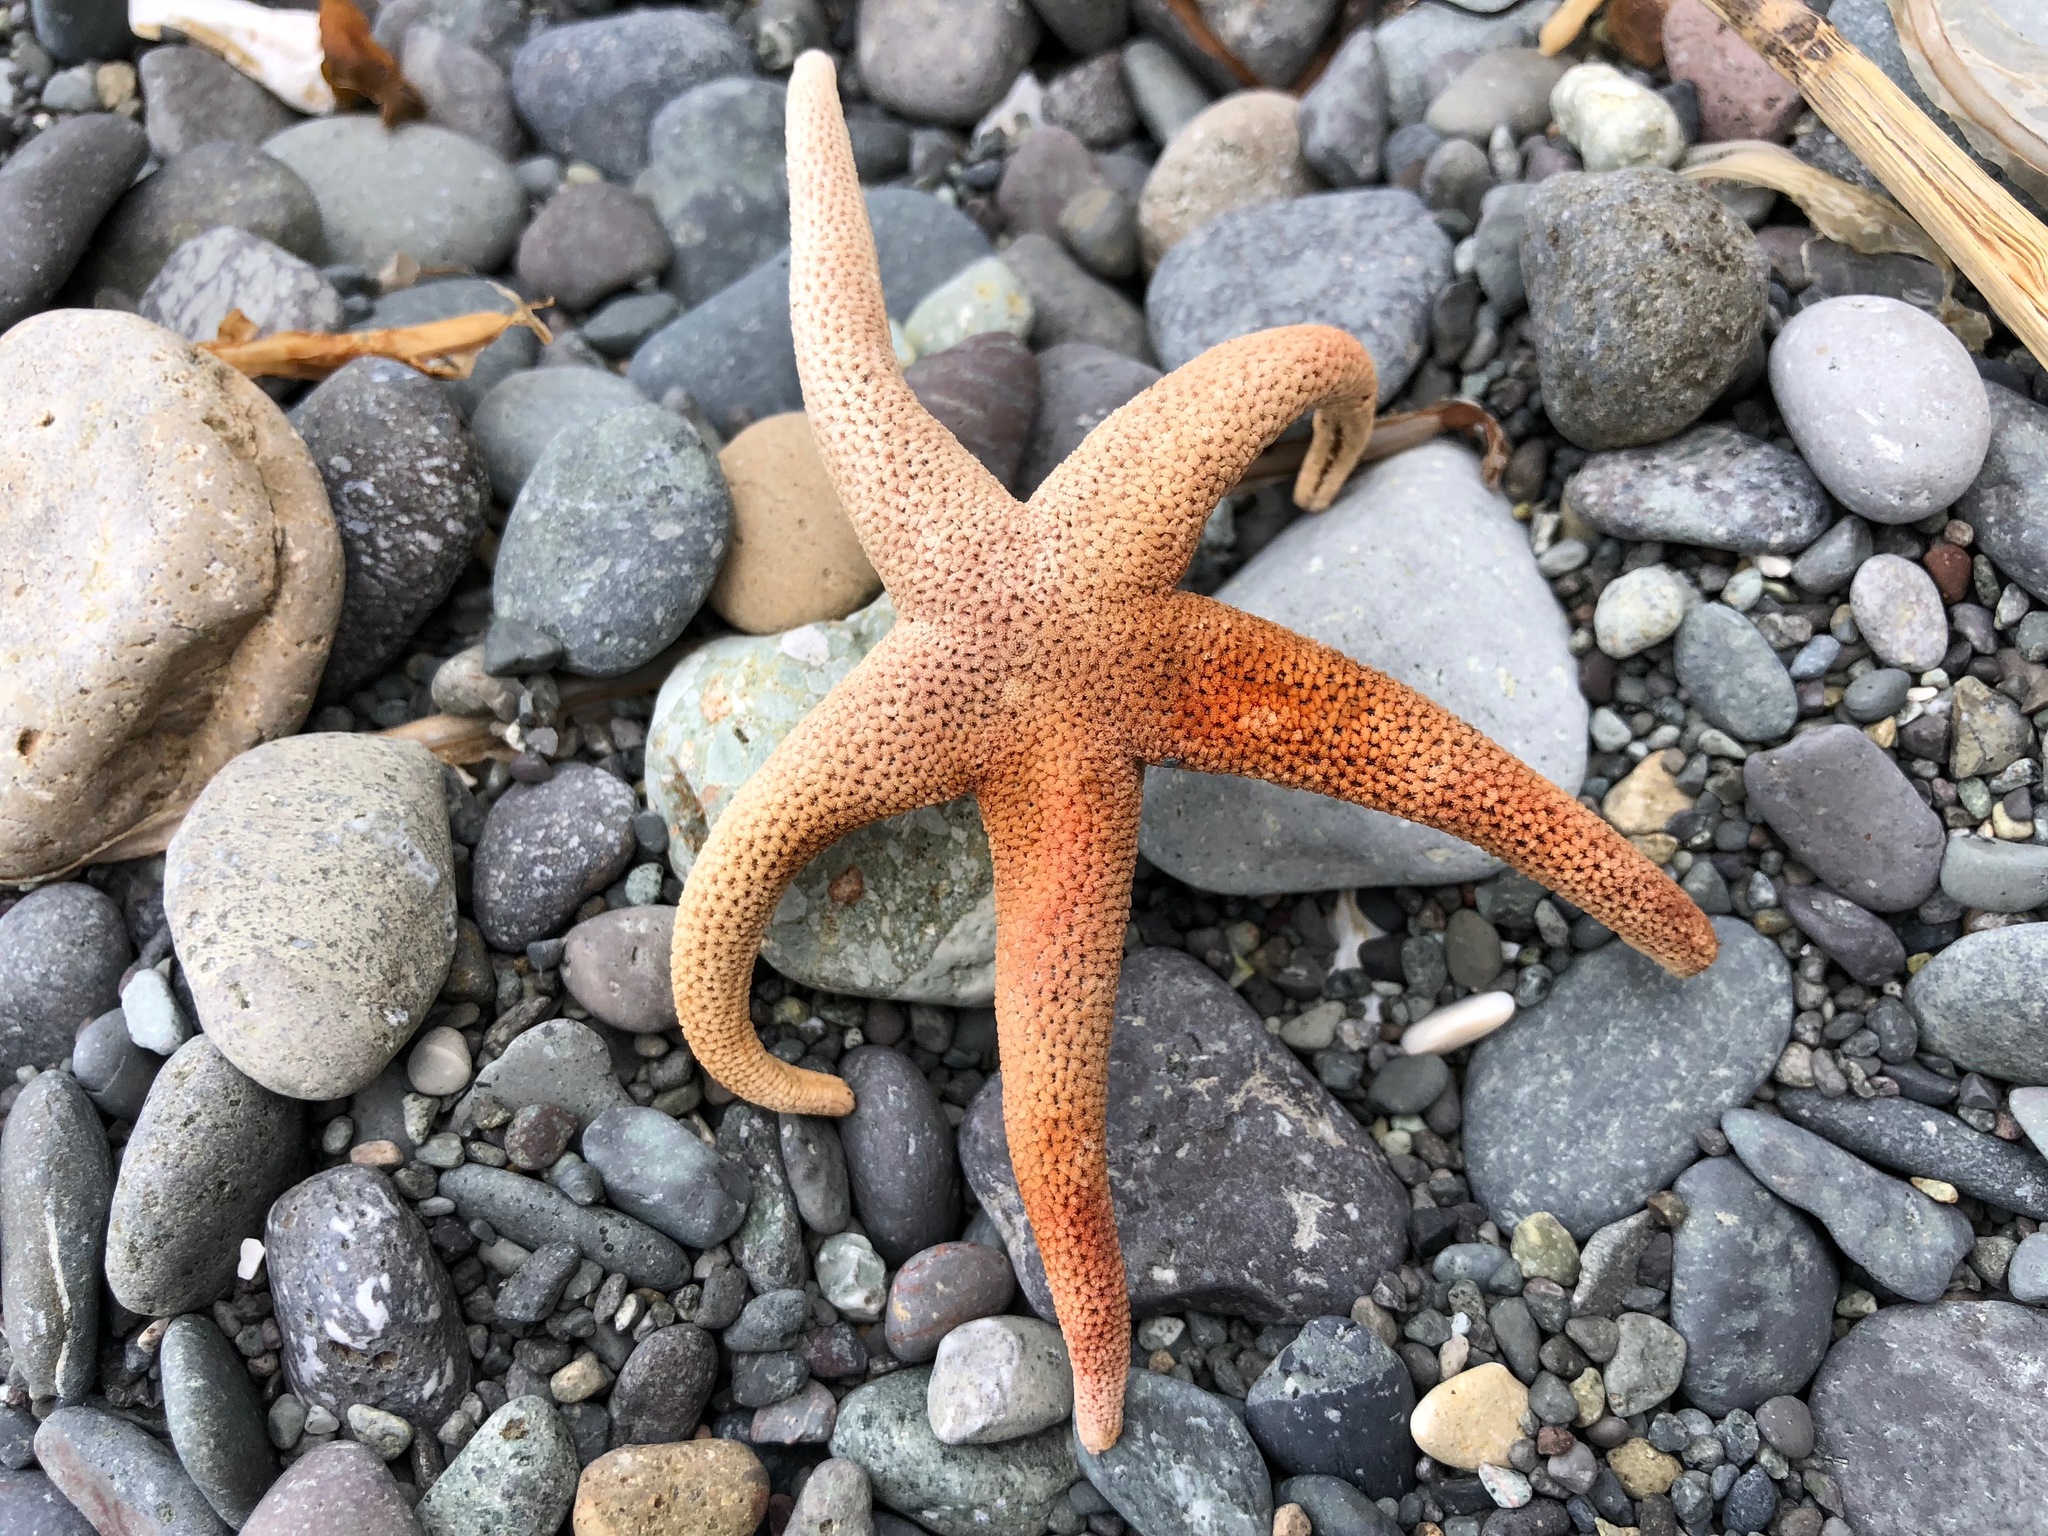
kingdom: Animalia
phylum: Echinodermata
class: Asteroidea
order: Spinulosida
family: Echinasteridae
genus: Henricia
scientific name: Henricia leviuscula
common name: Pacific blood star
